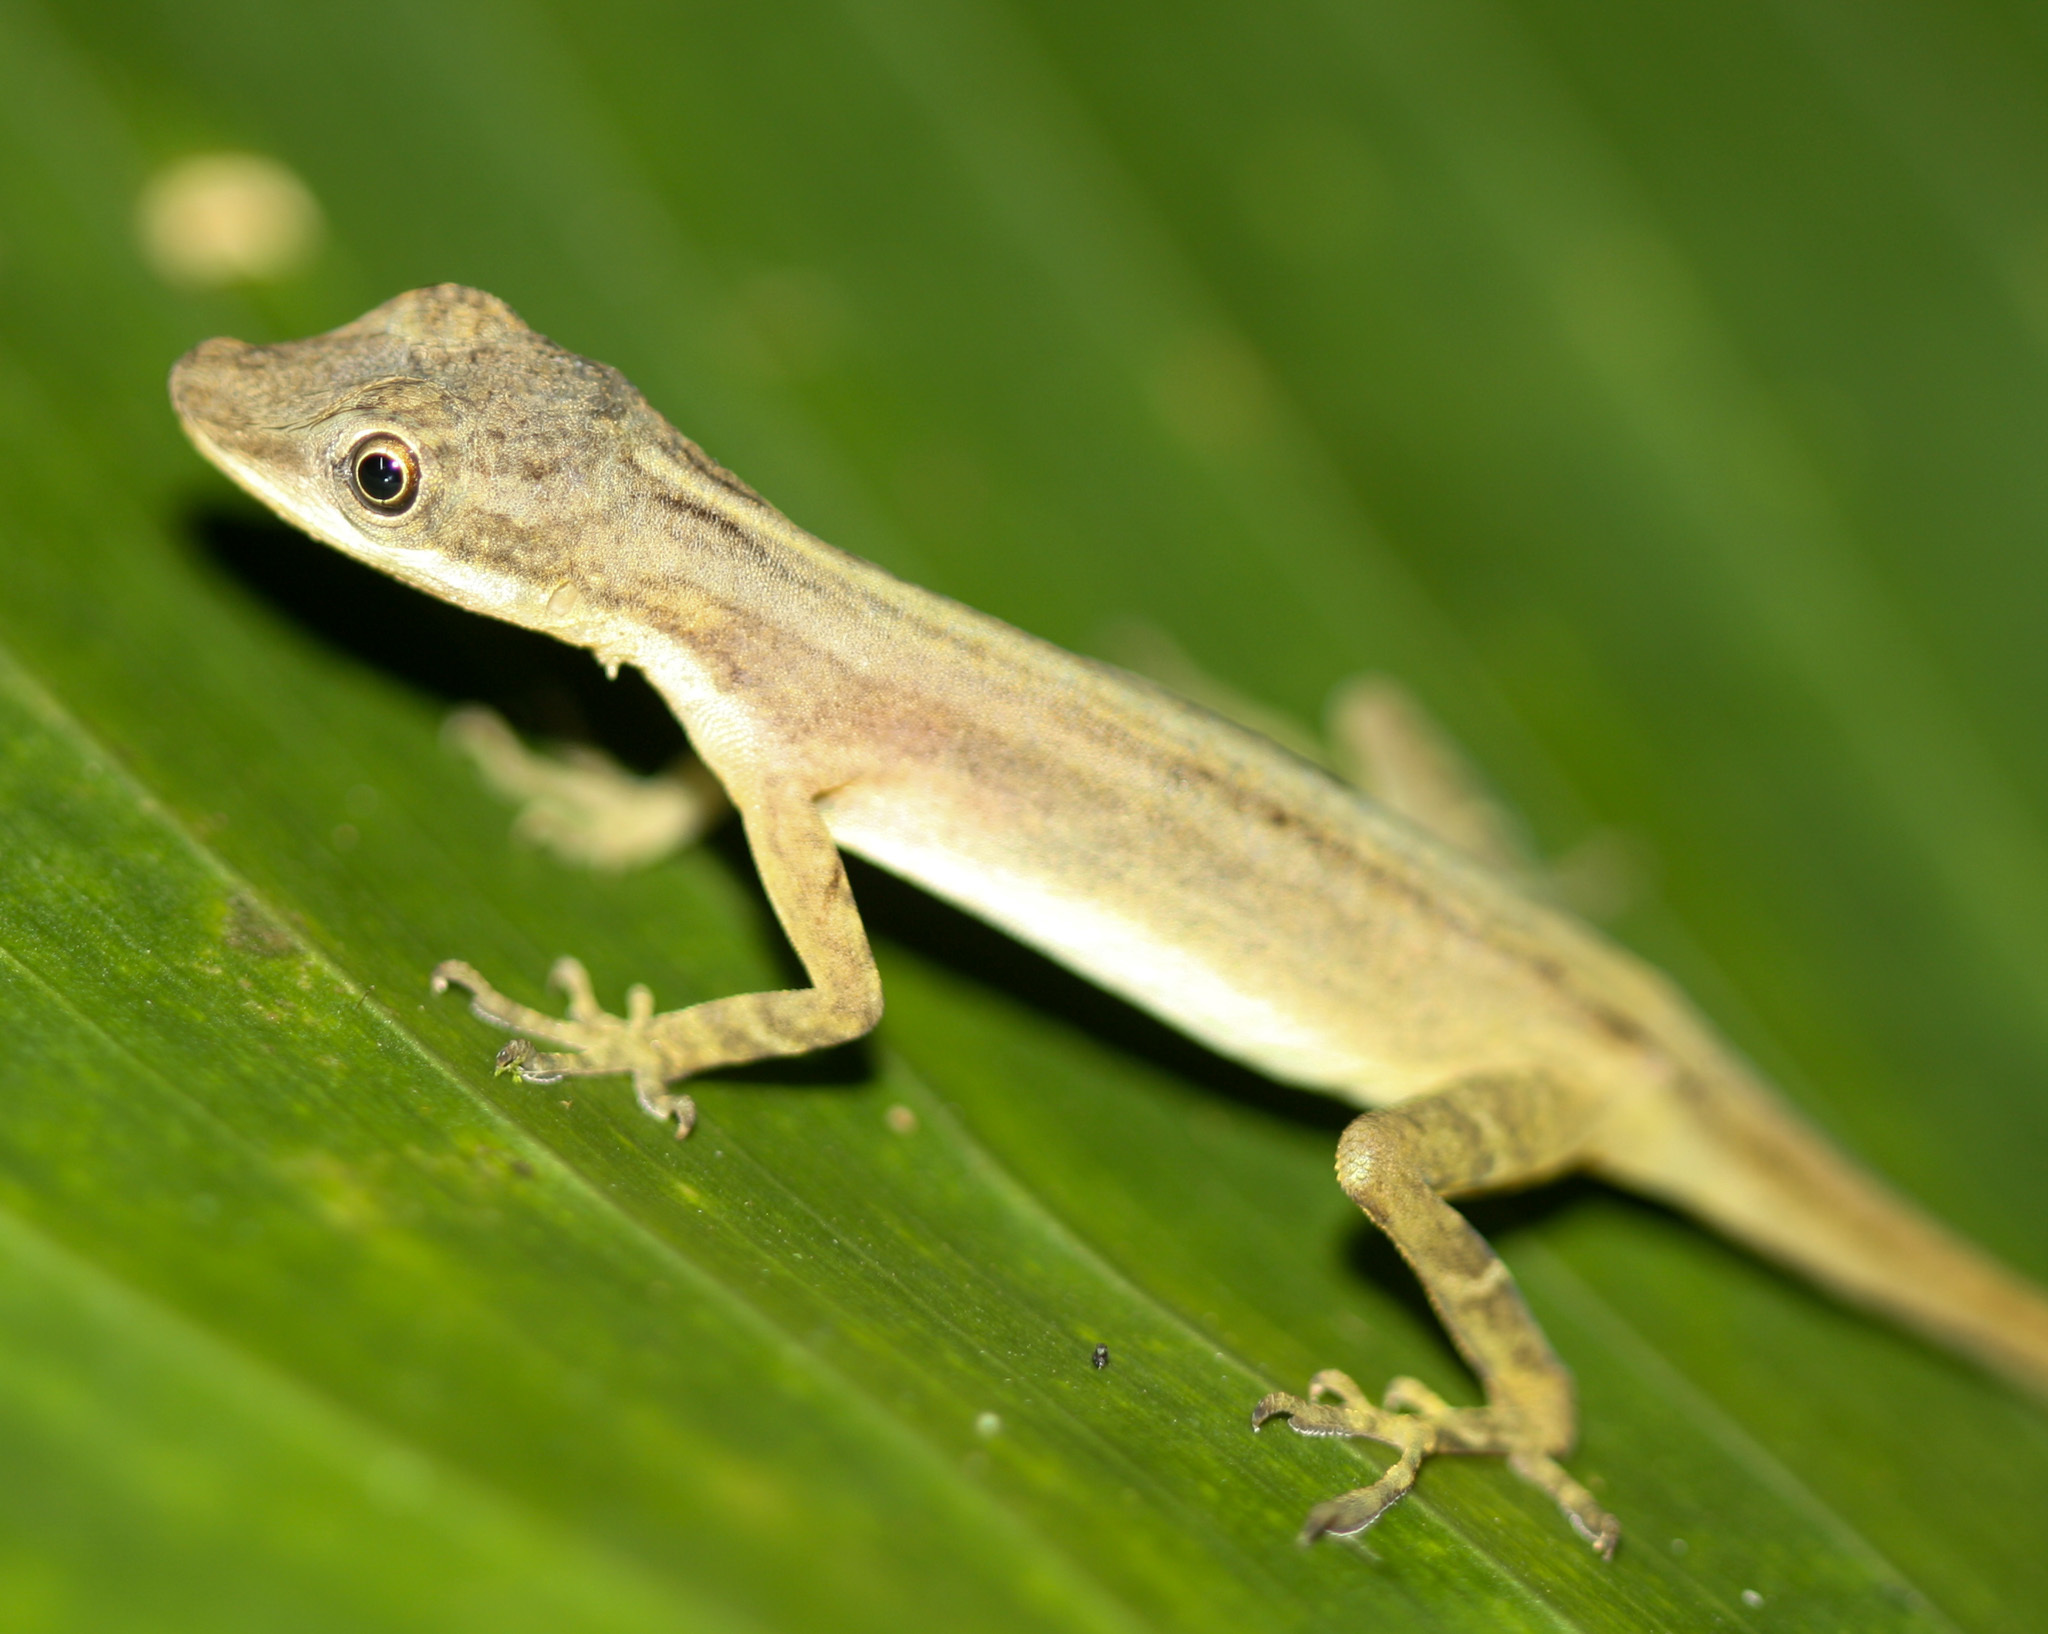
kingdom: Animalia
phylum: Chordata
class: Squamata
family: Dactyloidae
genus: Anolis
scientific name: Anolis limifrons
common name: Border anole
